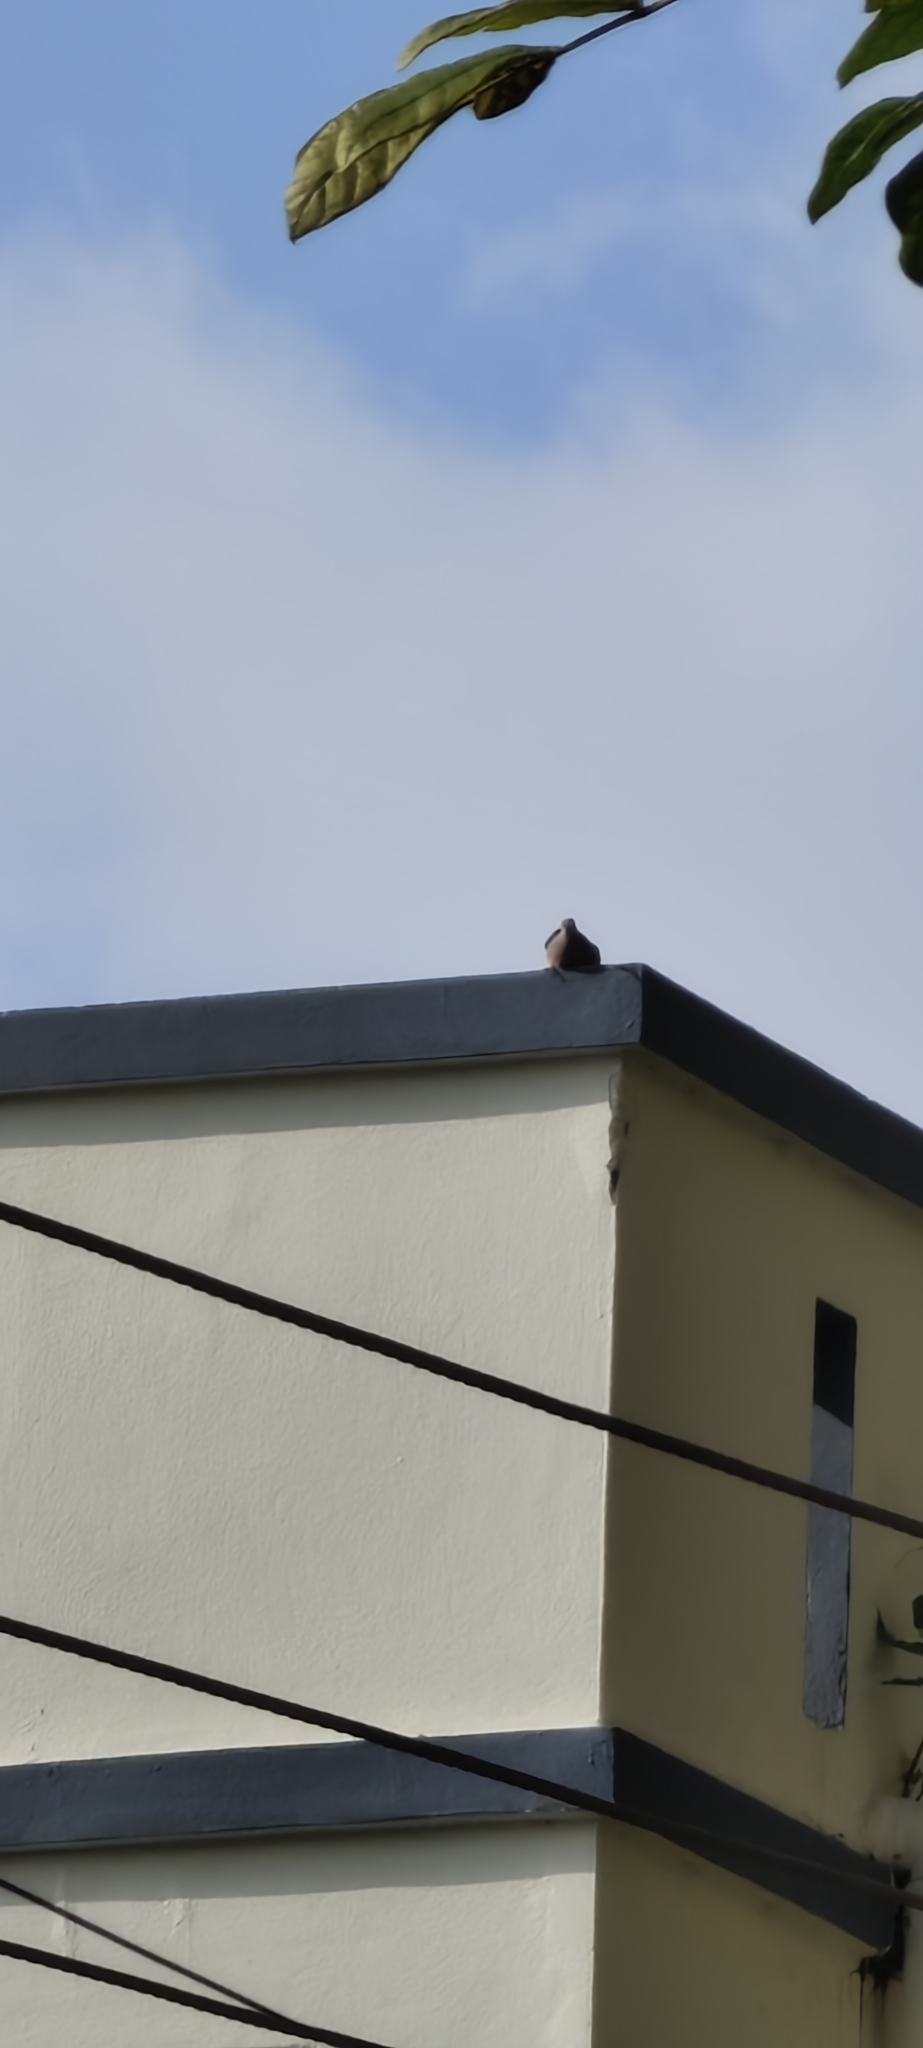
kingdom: Animalia
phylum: Chordata
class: Aves
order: Columbiformes
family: Columbidae
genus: Spilopelia
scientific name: Spilopelia senegalensis
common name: Laughing dove
